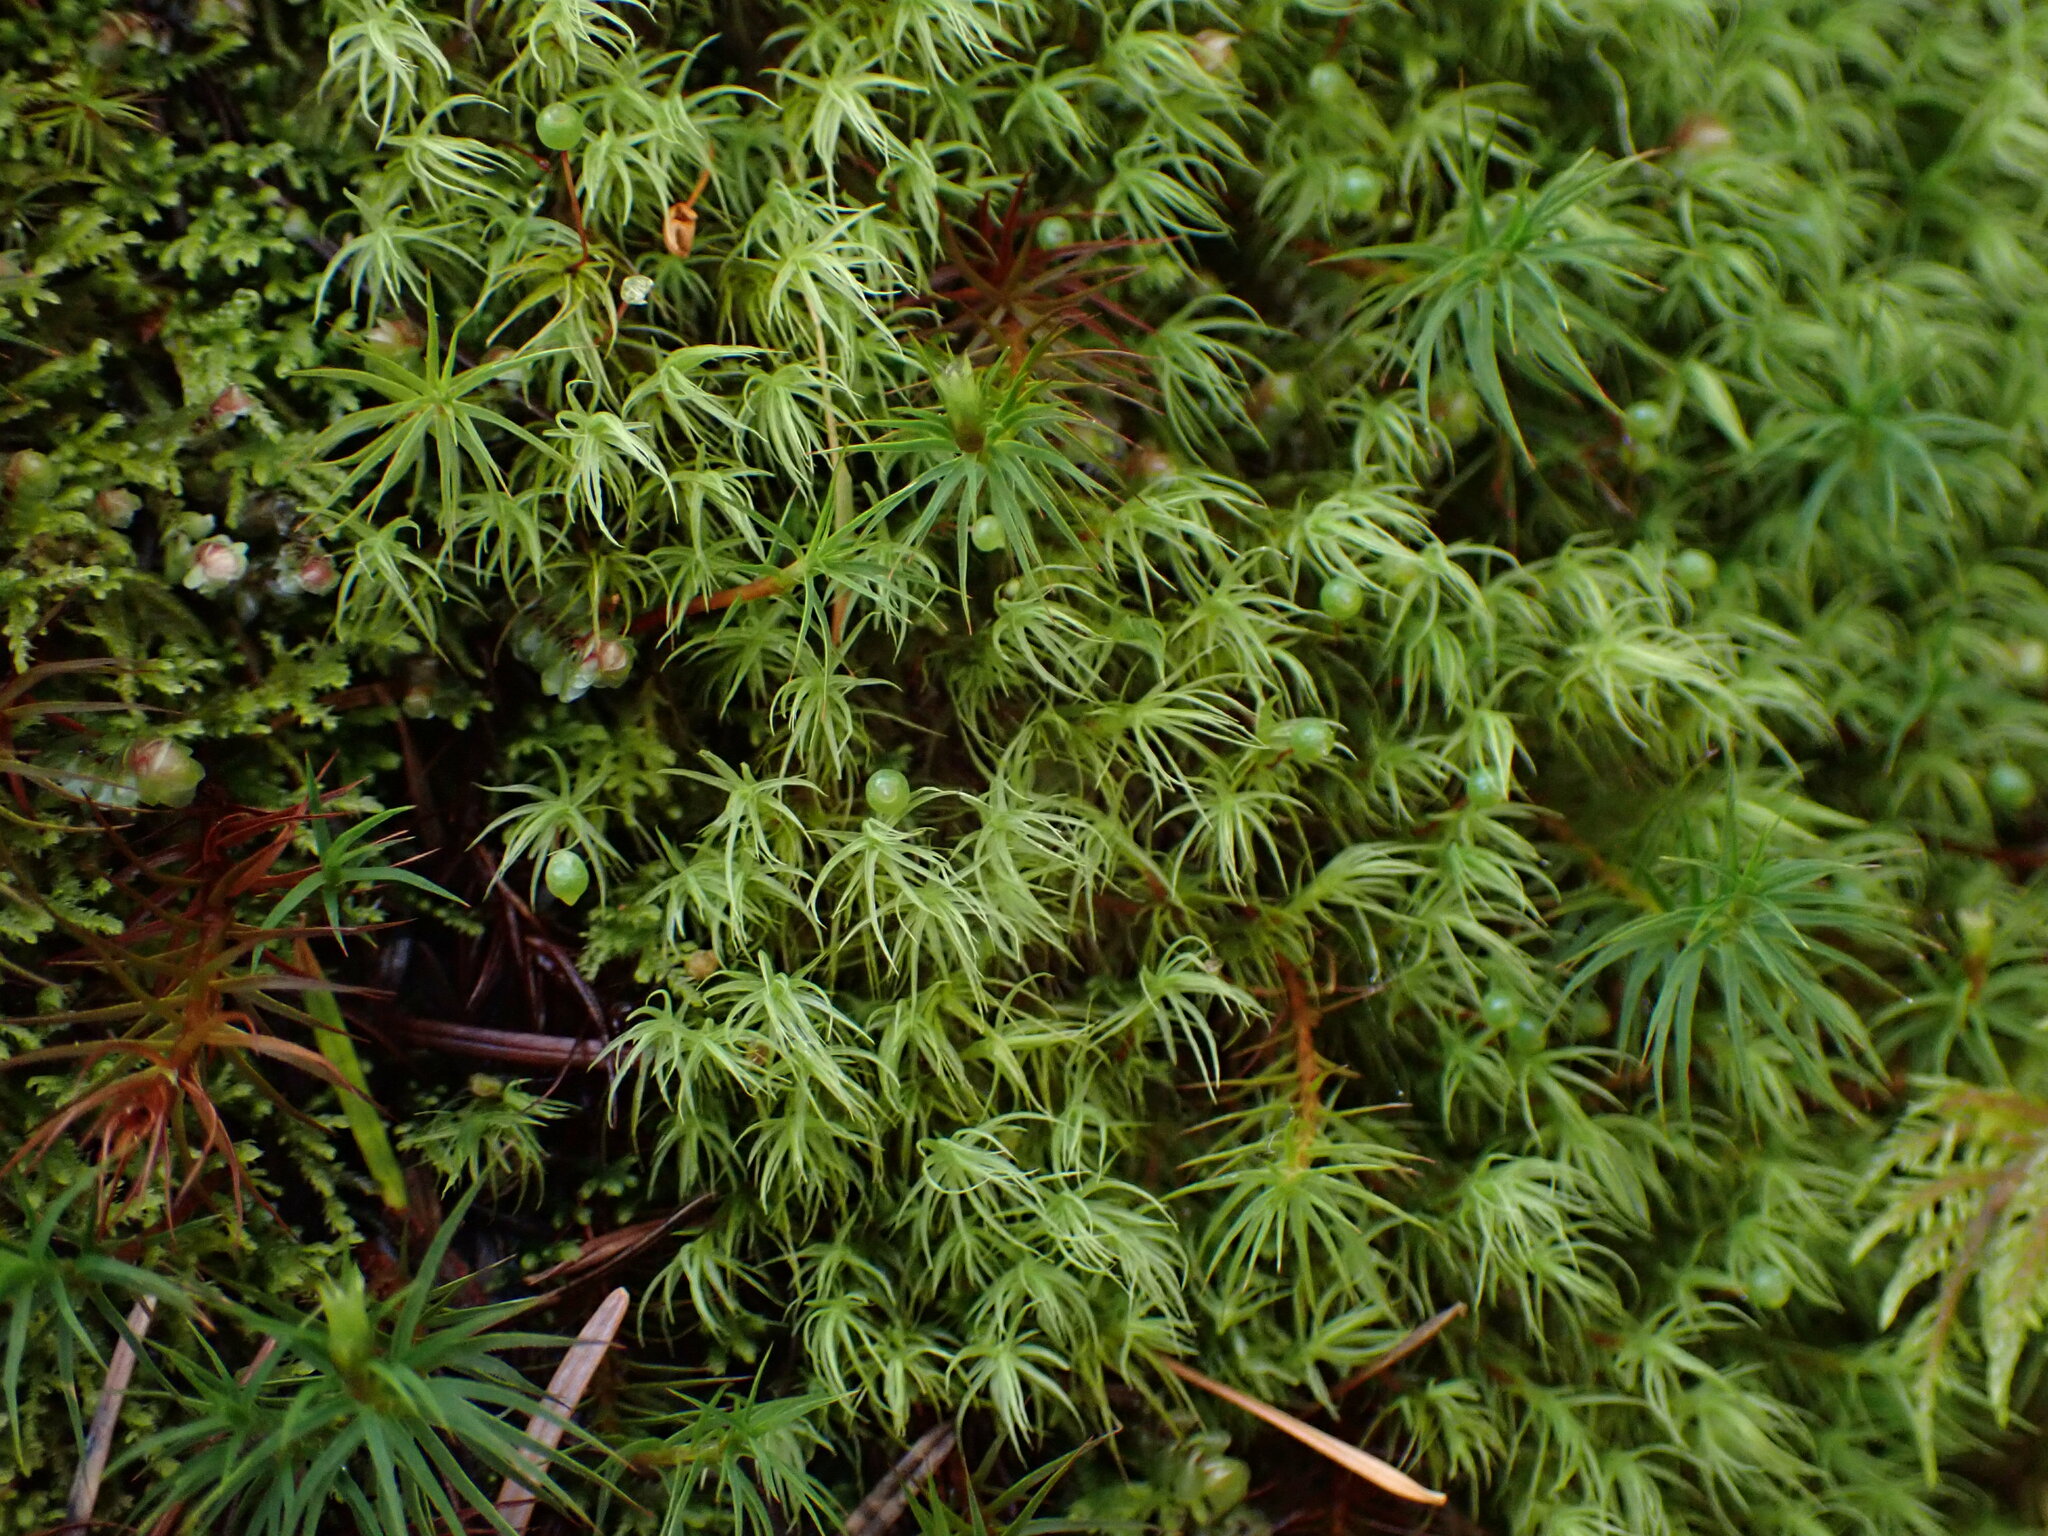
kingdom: Plantae
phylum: Bryophyta
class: Bryopsida
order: Bartramiales
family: Bartramiaceae
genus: Bartramia
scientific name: Bartramia ithyphylla
